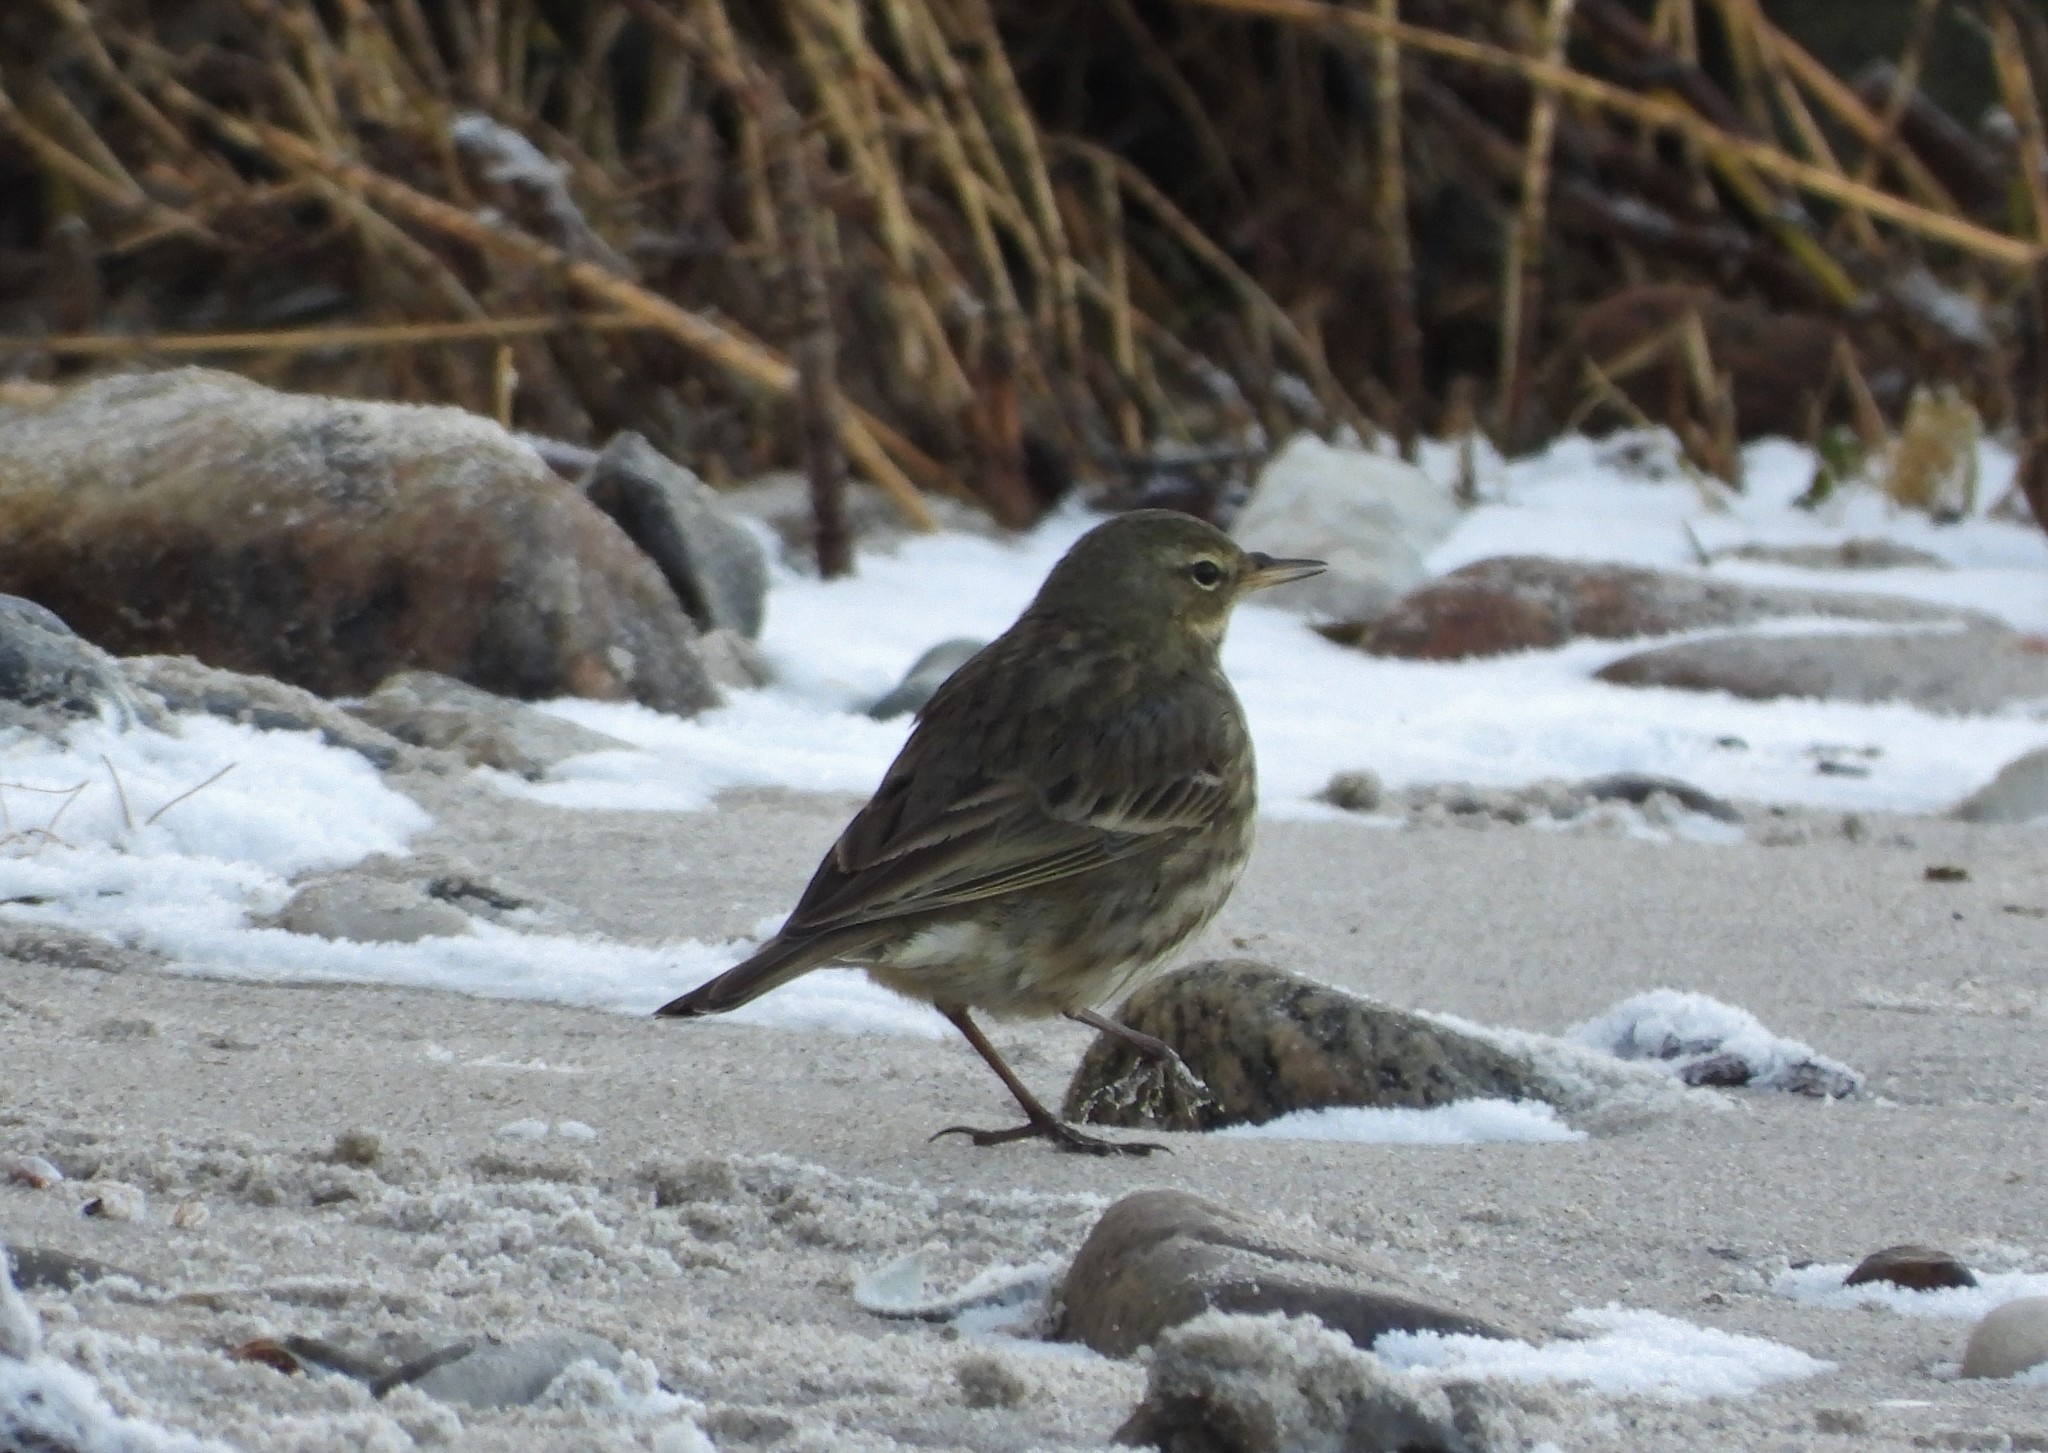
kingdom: Animalia
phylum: Chordata
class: Aves
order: Passeriformes
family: Motacillidae
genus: Anthus
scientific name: Anthus petrosus
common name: Eurasian rock pipit
